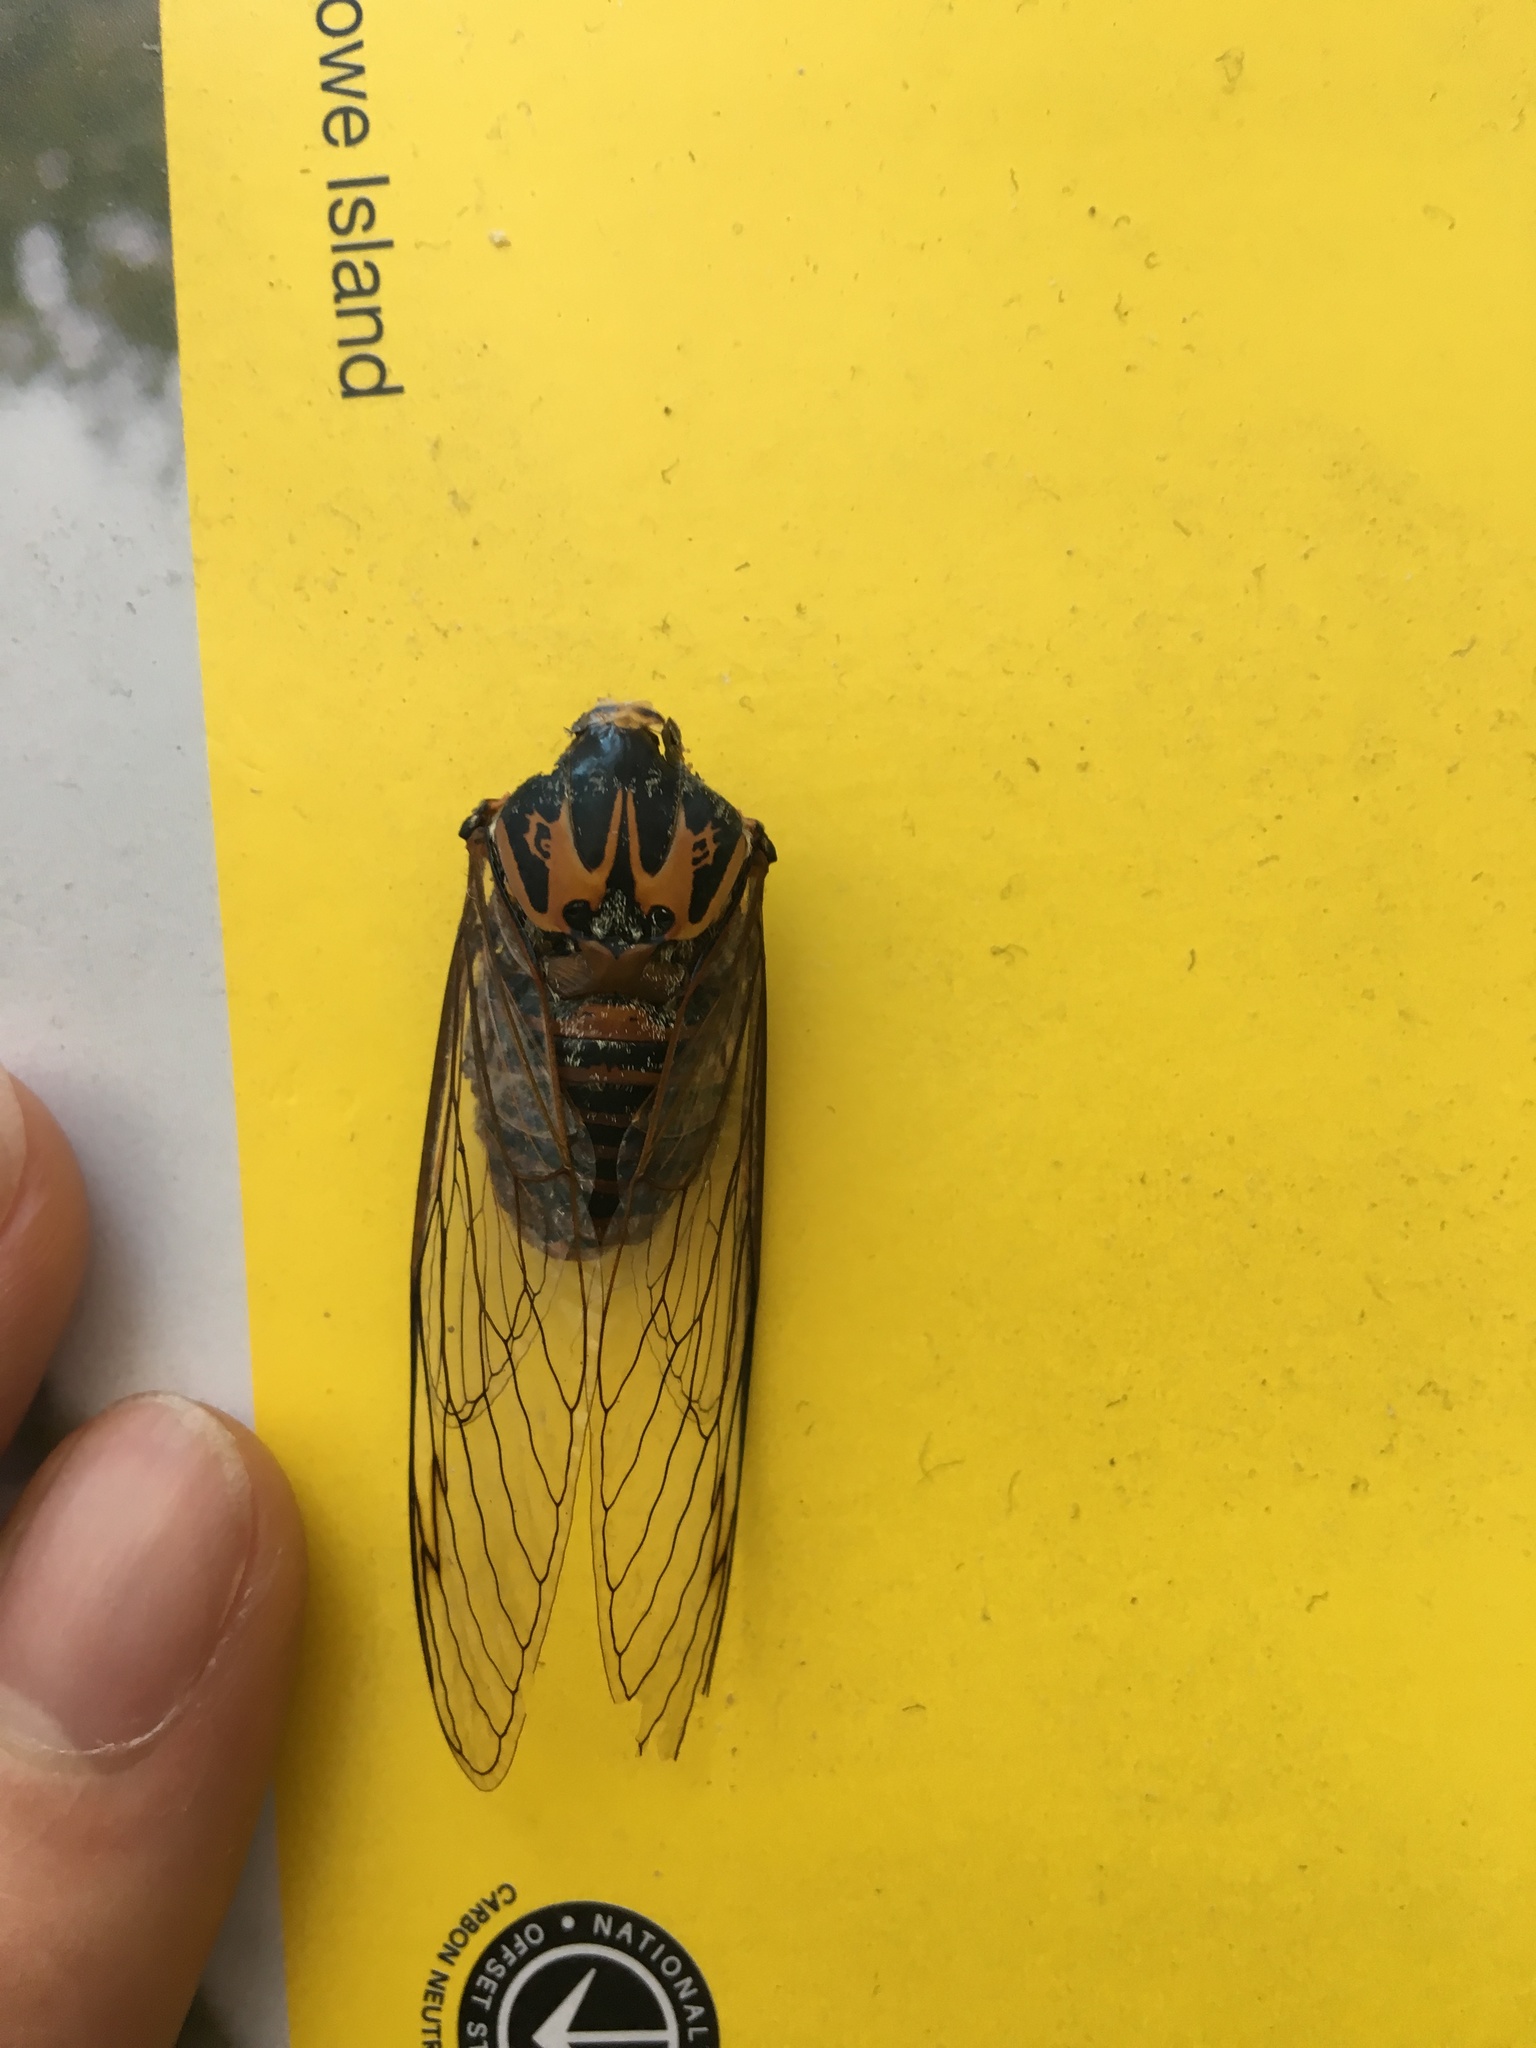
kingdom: Animalia
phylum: Arthropoda
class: Insecta
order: Hemiptera
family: Cicadidae
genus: Psaltoda
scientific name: Psaltoda plaga
